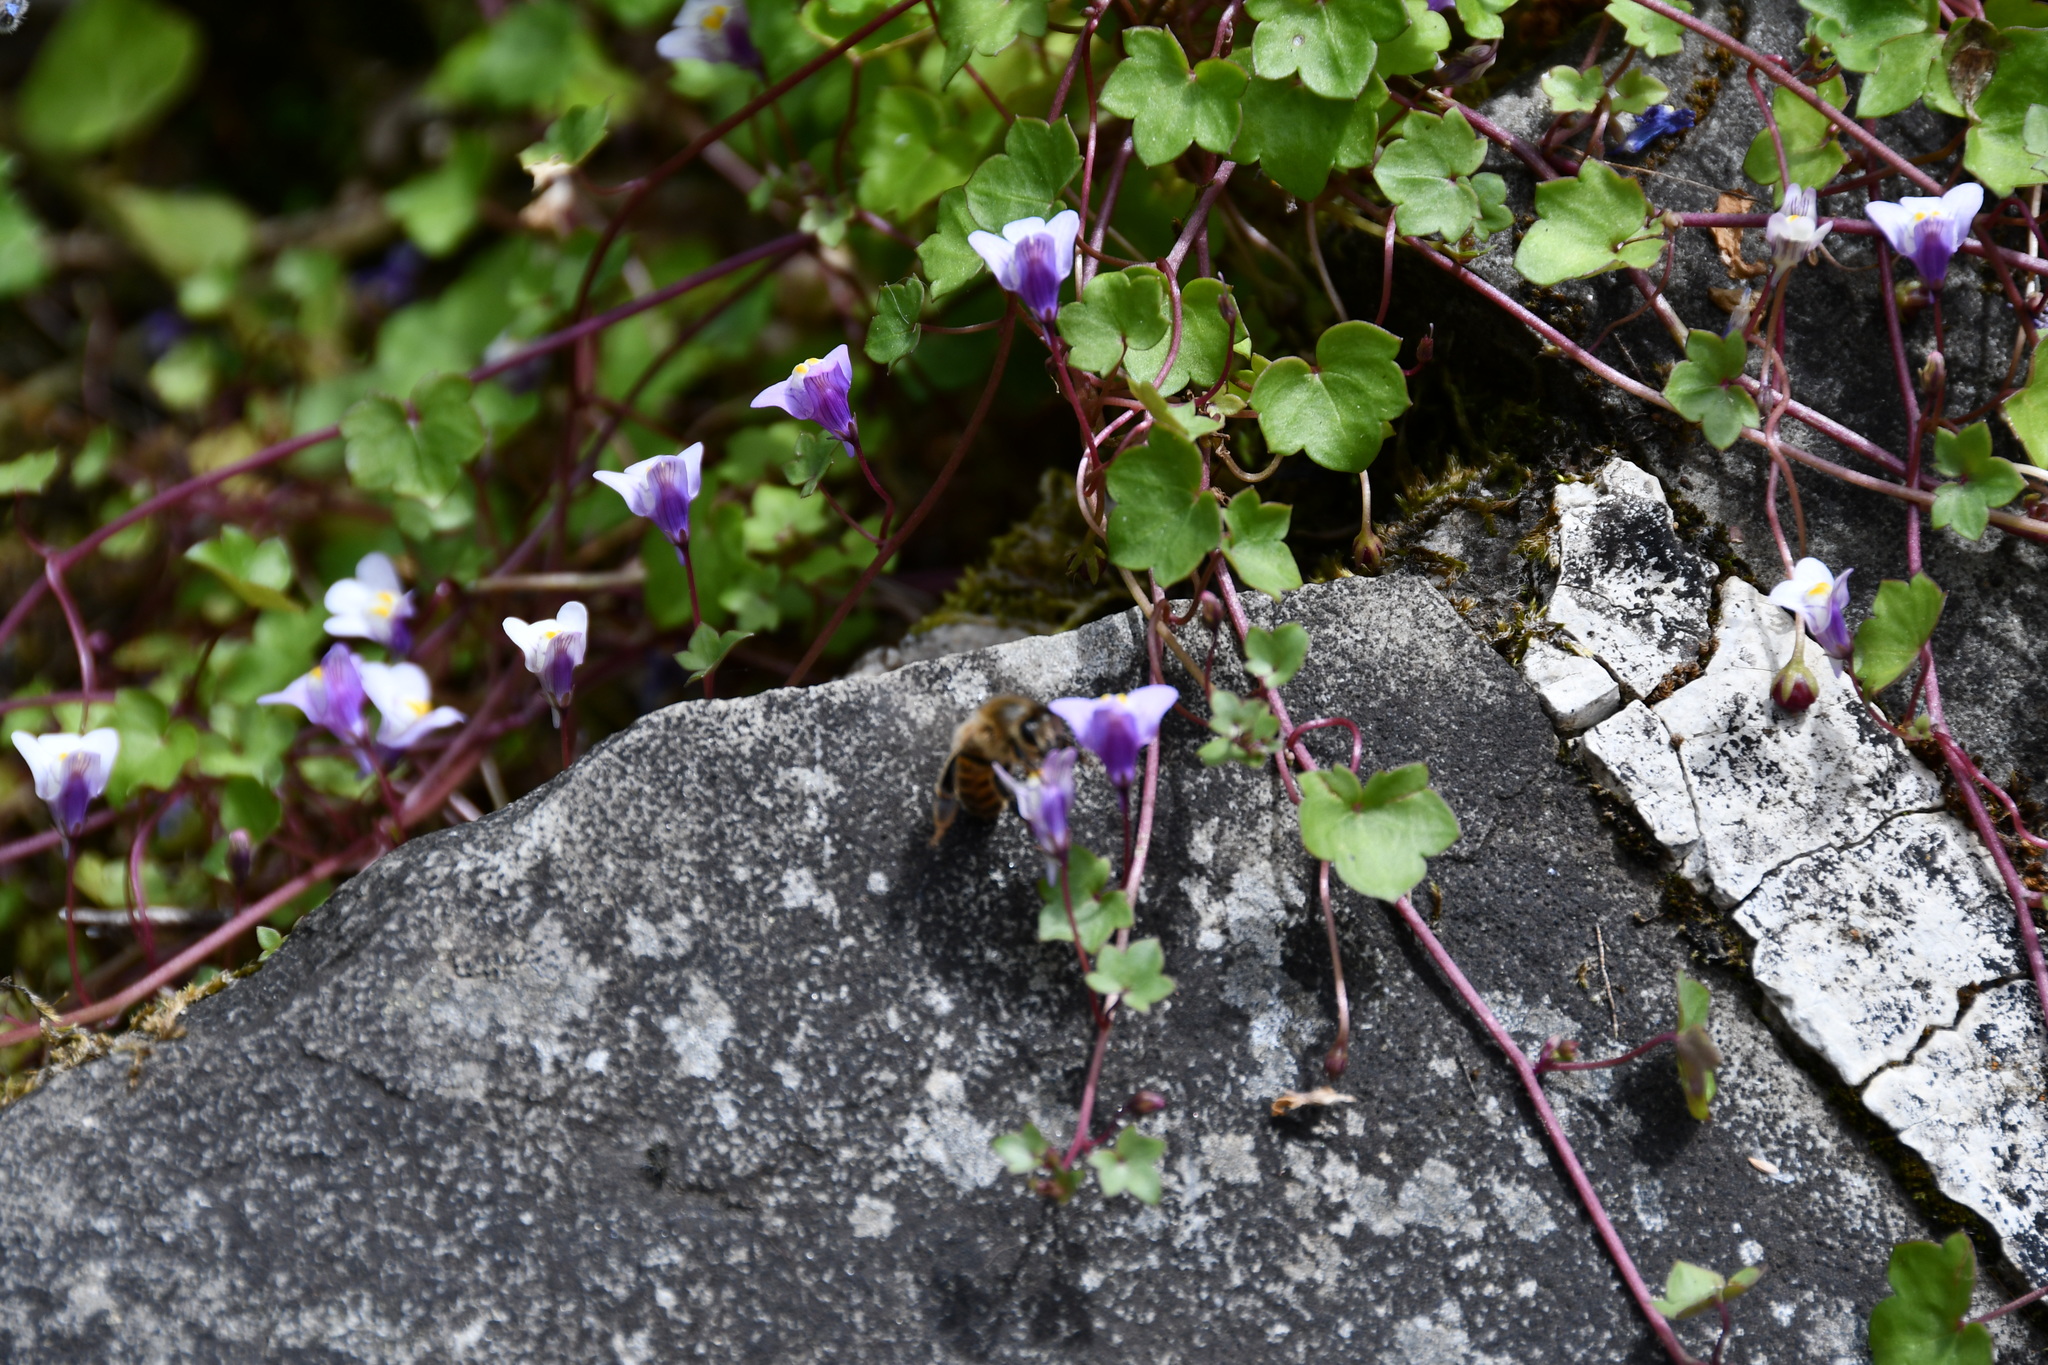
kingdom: Animalia
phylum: Arthropoda
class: Insecta
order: Hymenoptera
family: Apidae
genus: Apis
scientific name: Apis mellifera
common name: Honey bee
